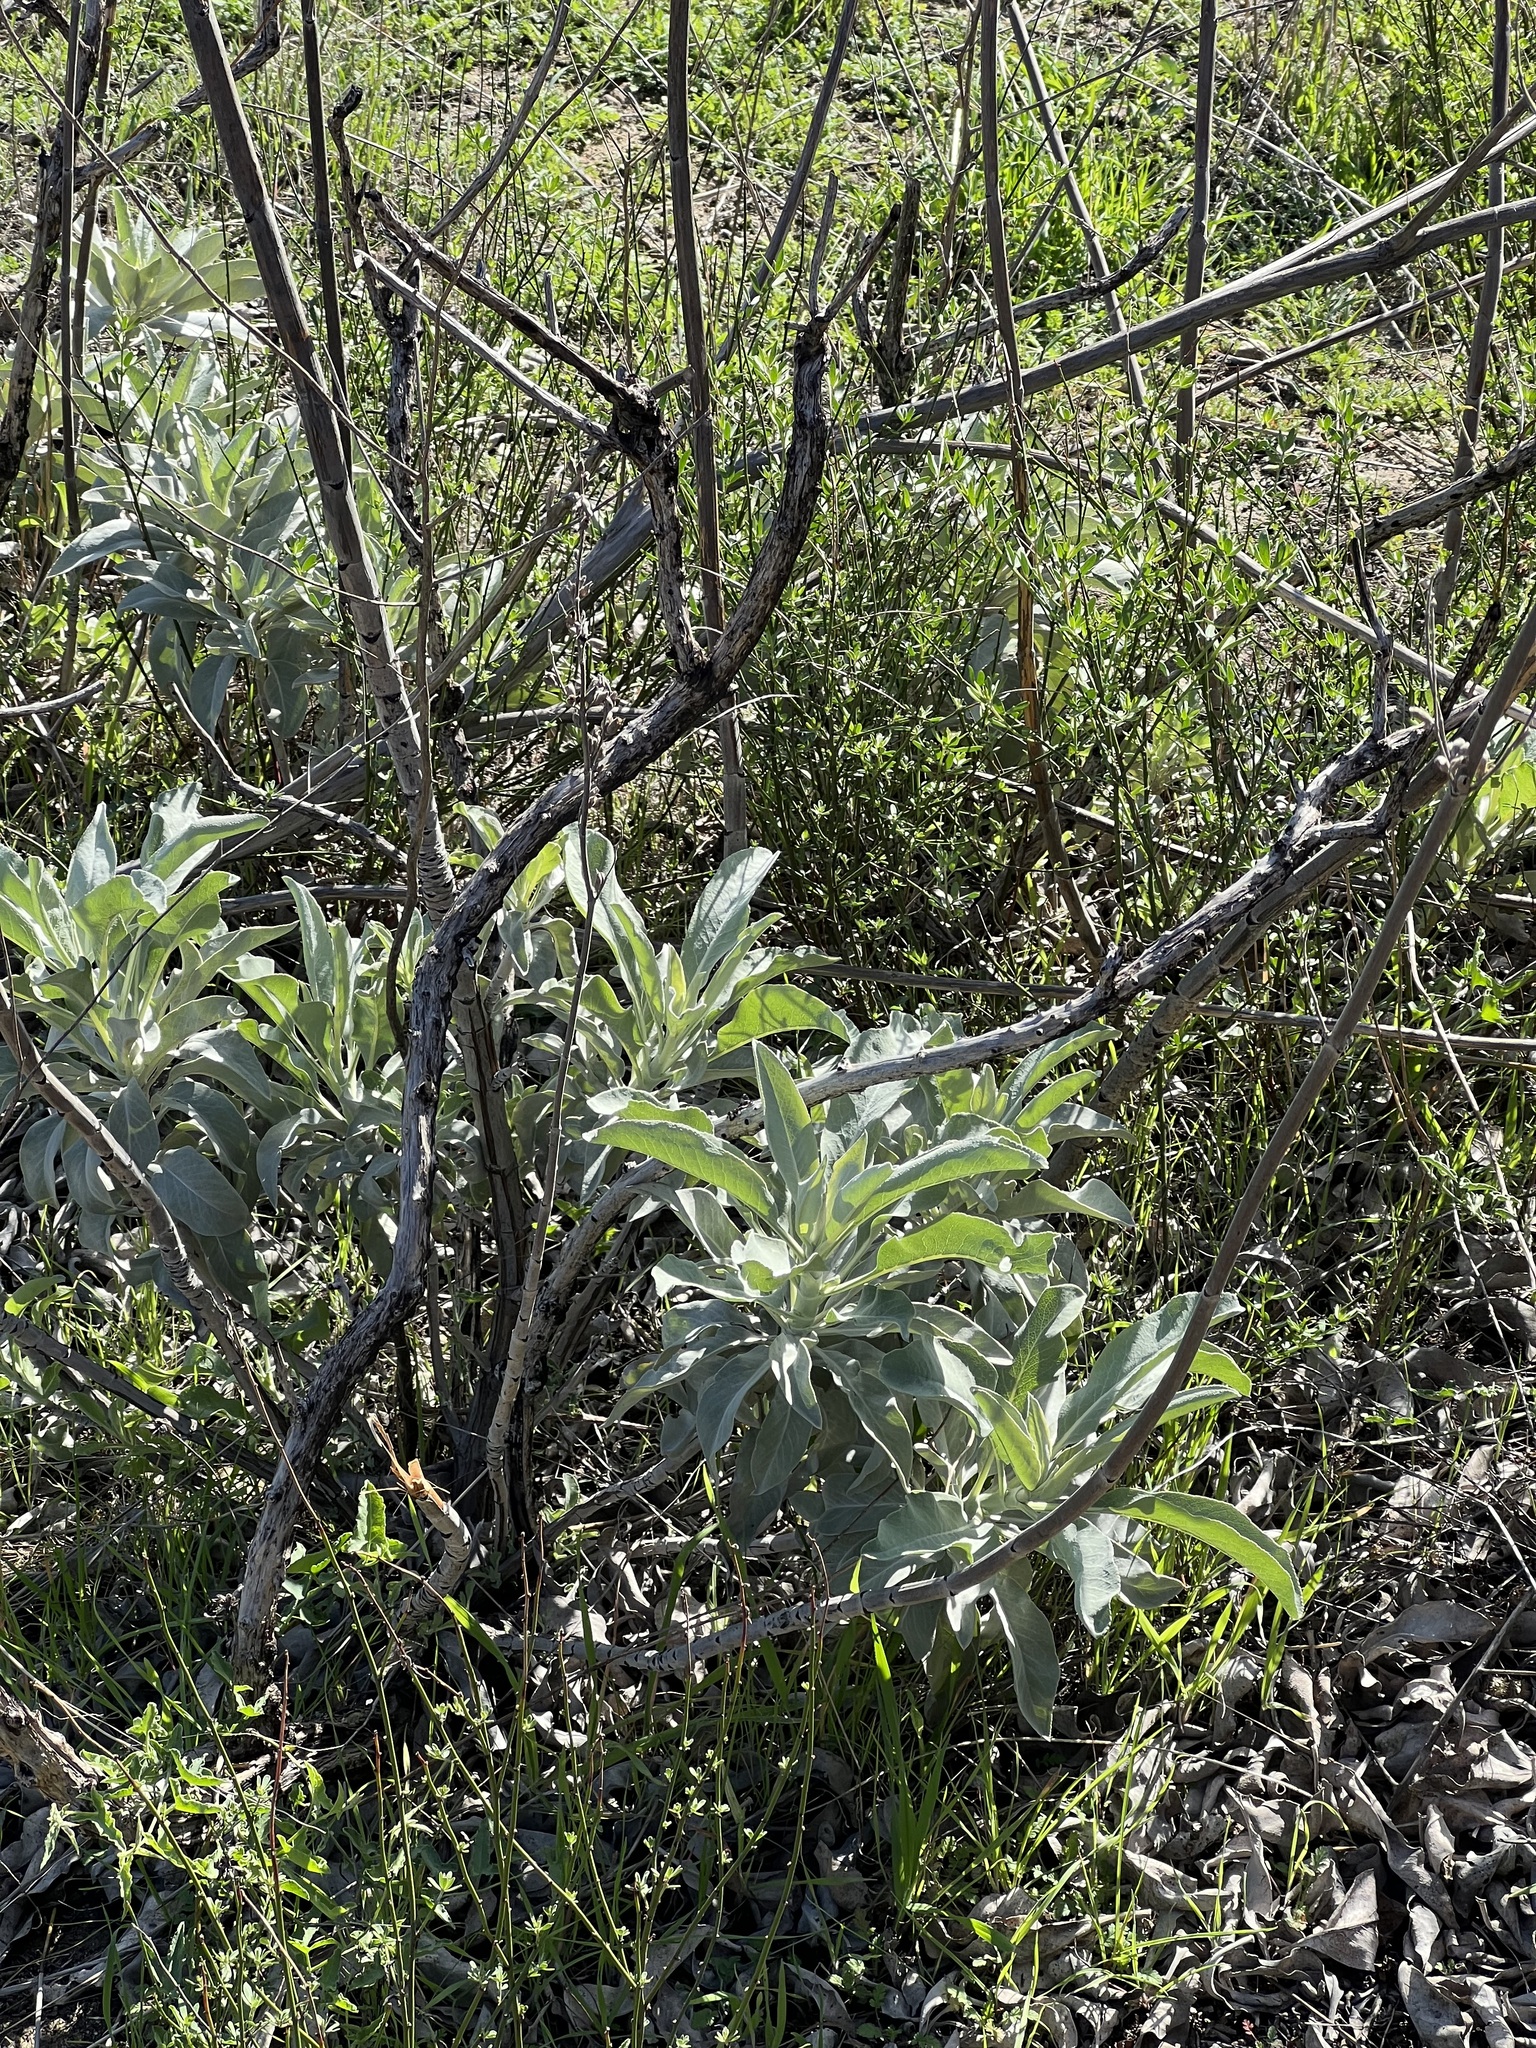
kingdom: Plantae
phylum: Tracheophyta
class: Magnoliopsida
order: Lamiales
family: Lamiaceae
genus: Salvia
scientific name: Salvia apiana
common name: White sage
